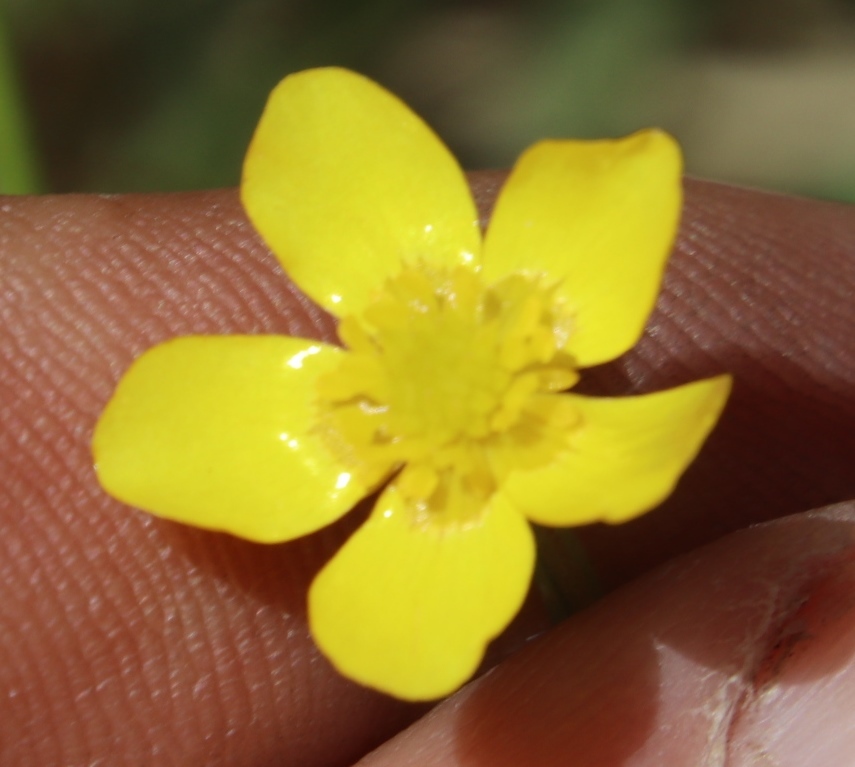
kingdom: Plantae
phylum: Tracheophyta
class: Magnoliopsida
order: Ranunculales
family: Ranunculaceae
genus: Ranunculus
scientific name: Ranunculus multifidus
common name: Wild buttercup
